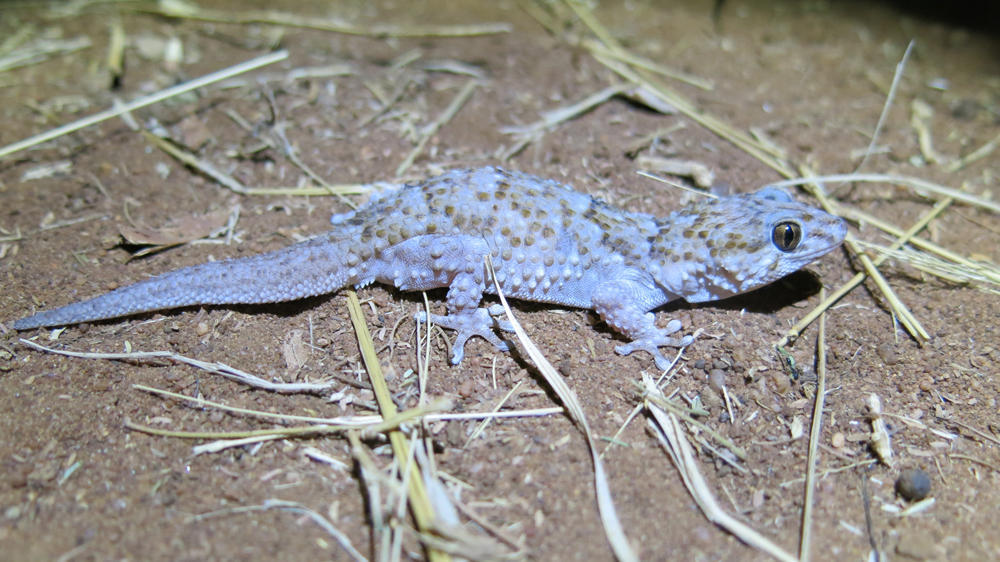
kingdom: Animalia
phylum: Chordata
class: Squamata
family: Gekkonidae
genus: Chondrodactylus
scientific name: Chondrodactylus turneri
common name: Turner’s gecko
